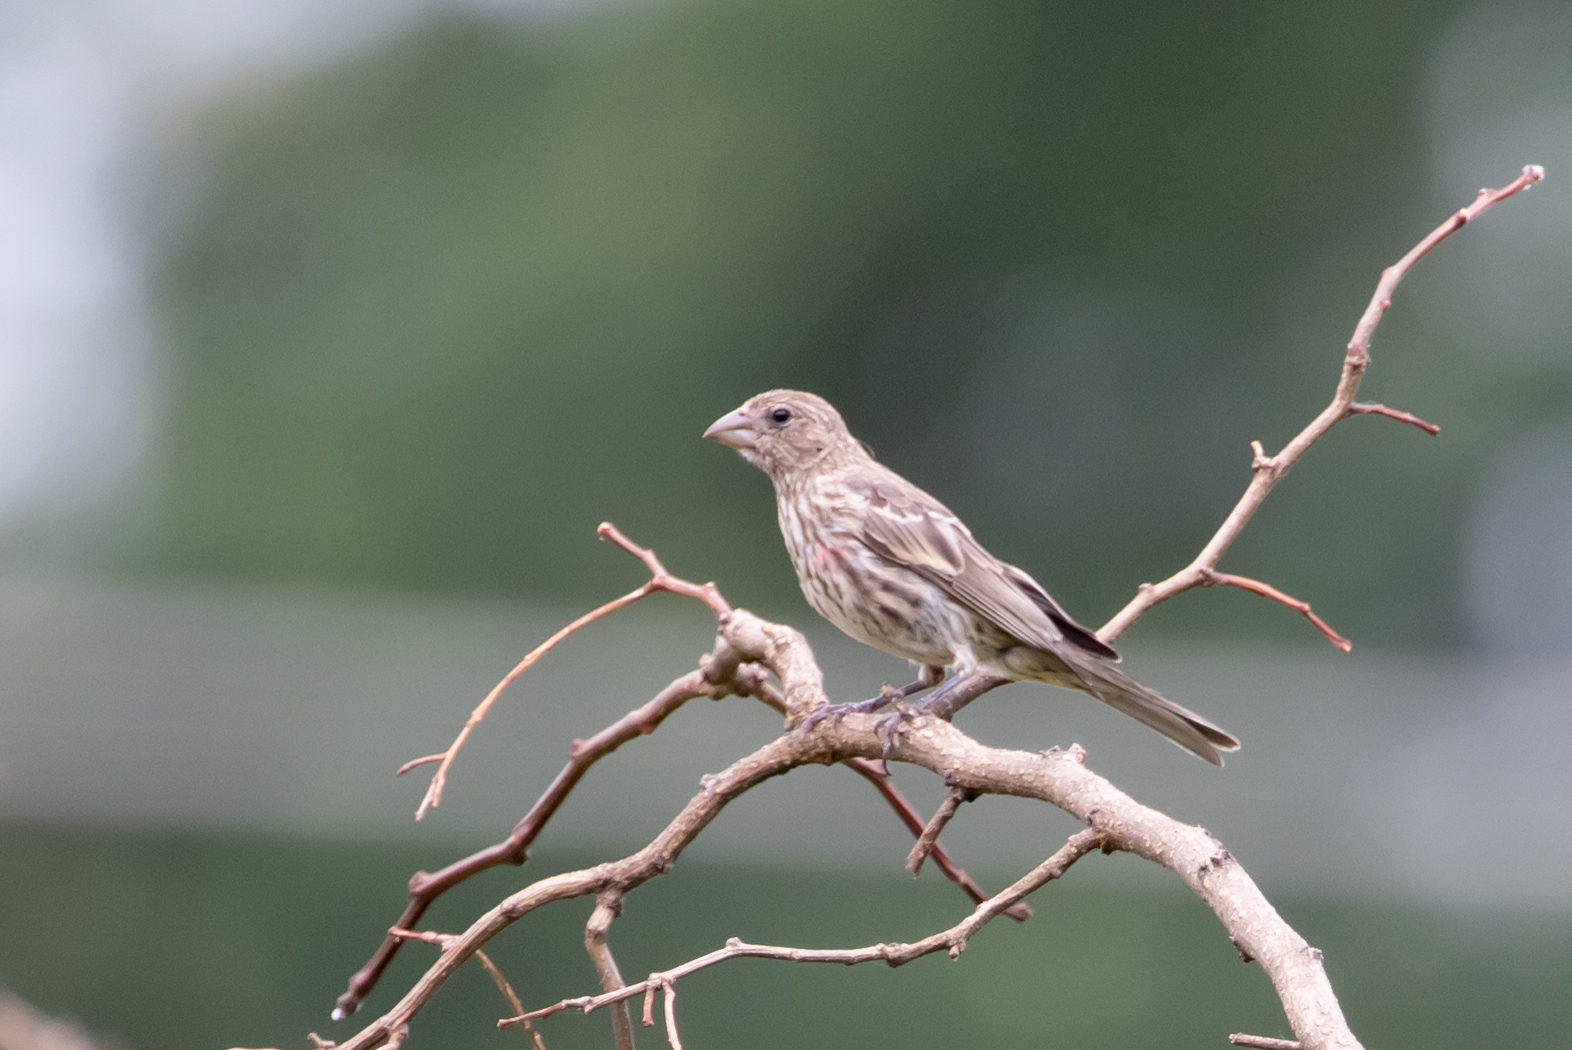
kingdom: Animalia
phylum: Chordata
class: Aves
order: Passeriformes
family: Fringillidae
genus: Haemorhous
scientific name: Haemorhous mexicanus
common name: House finch
